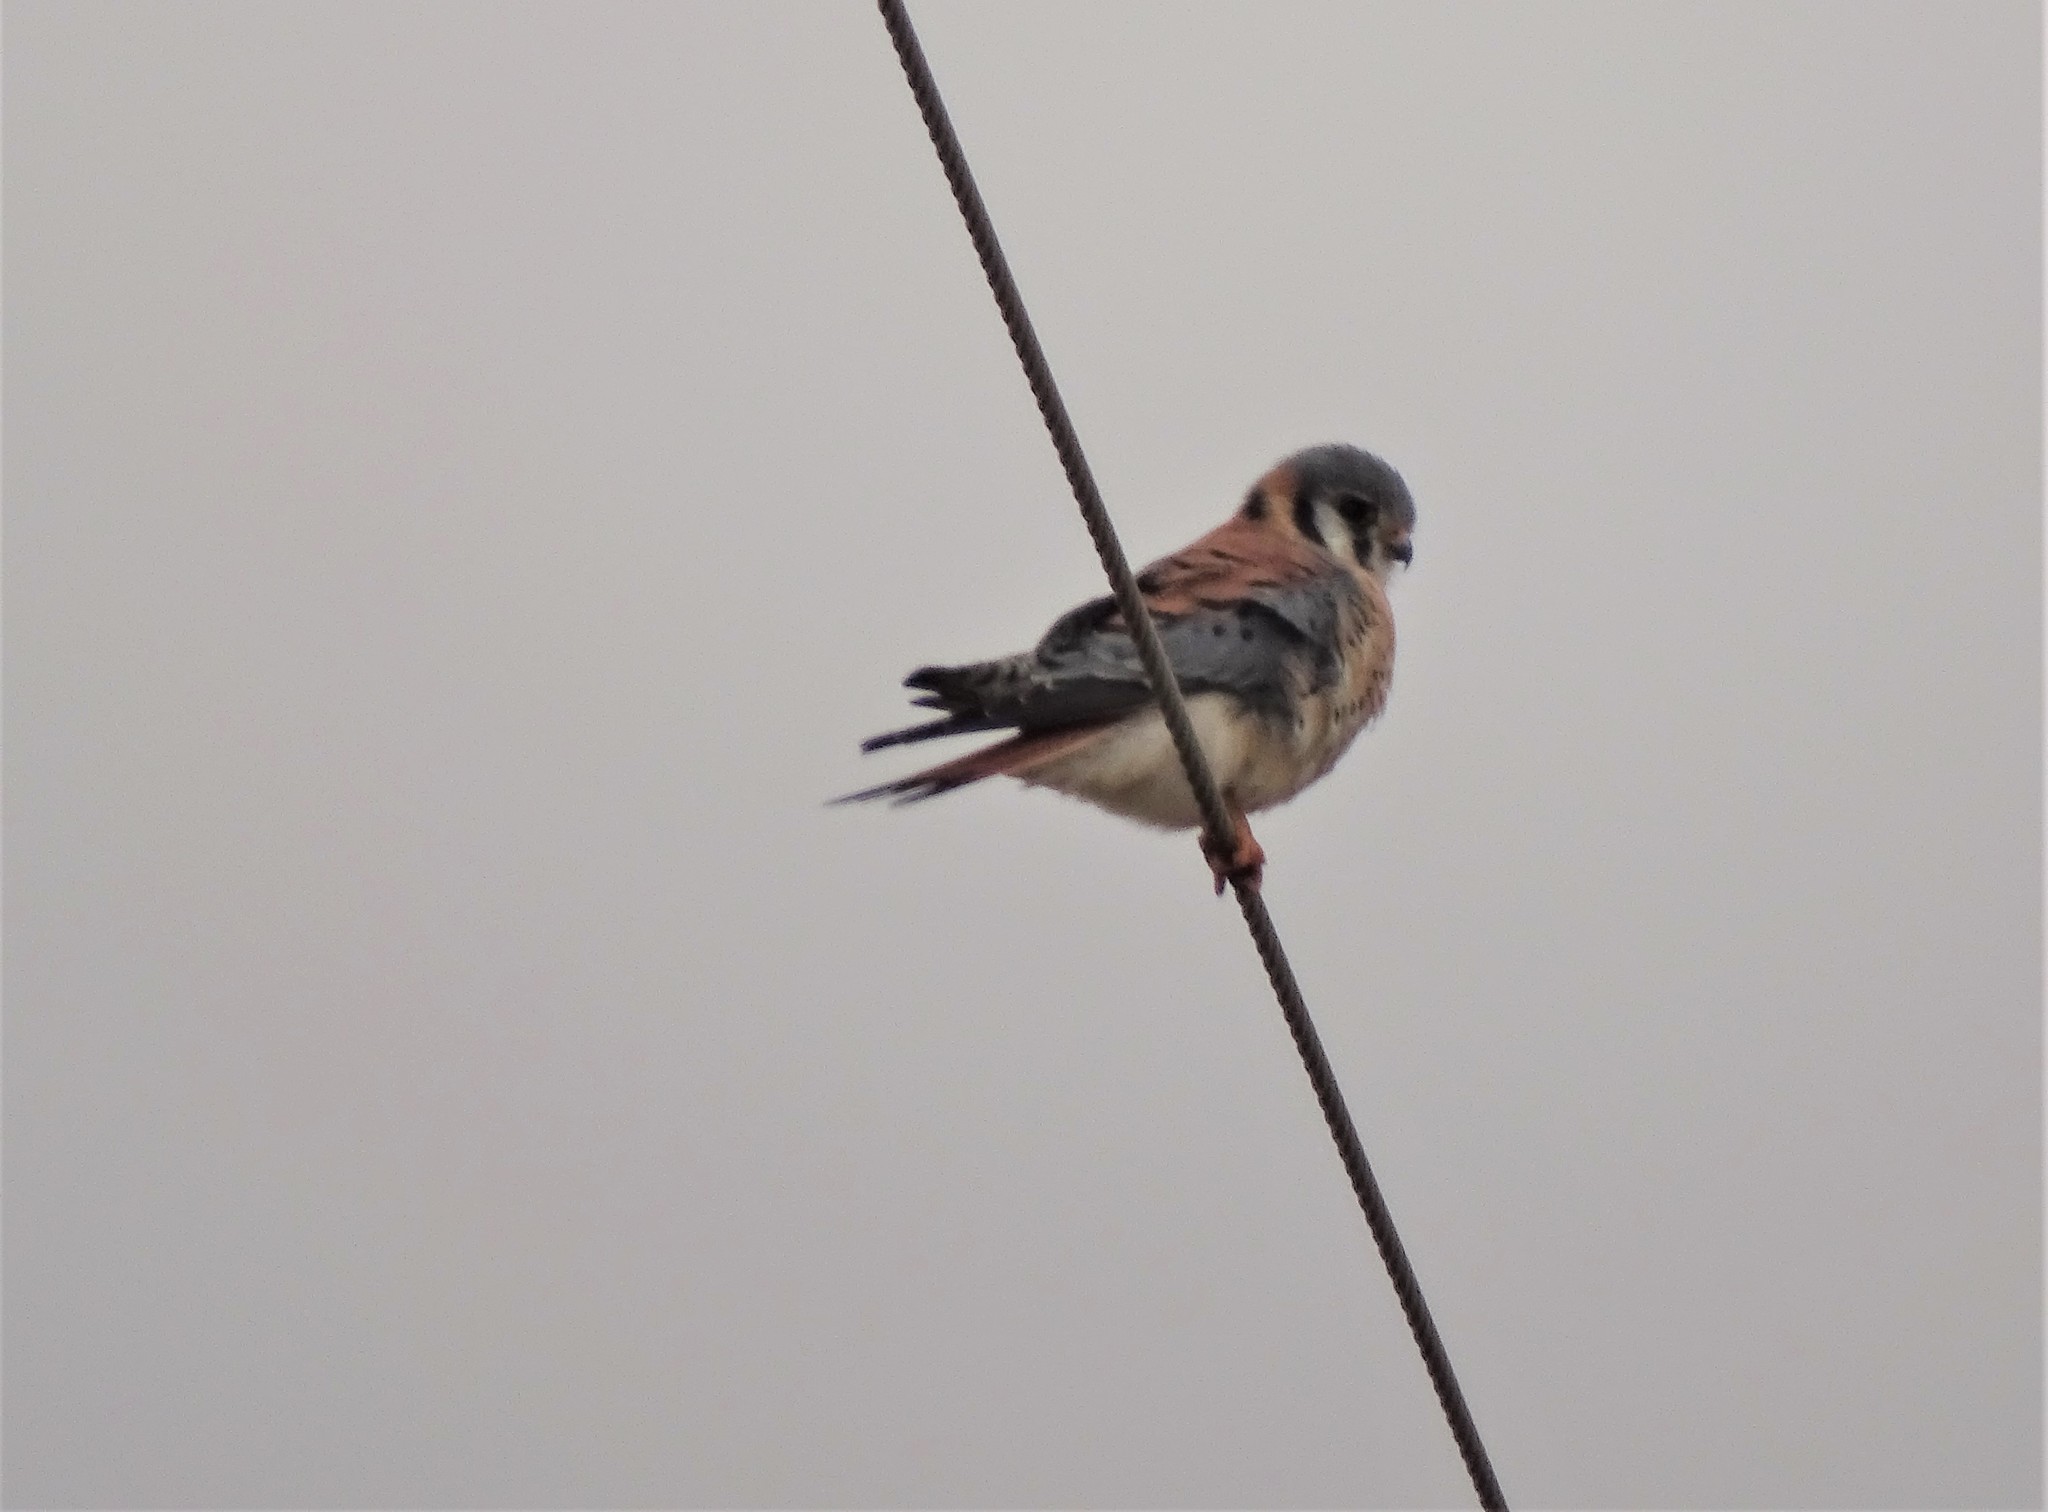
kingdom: Animalia
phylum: Chordata
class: Aves
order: Falconiformes
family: Falconidae
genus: Falco
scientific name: Falco sparverius
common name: American kestrel
